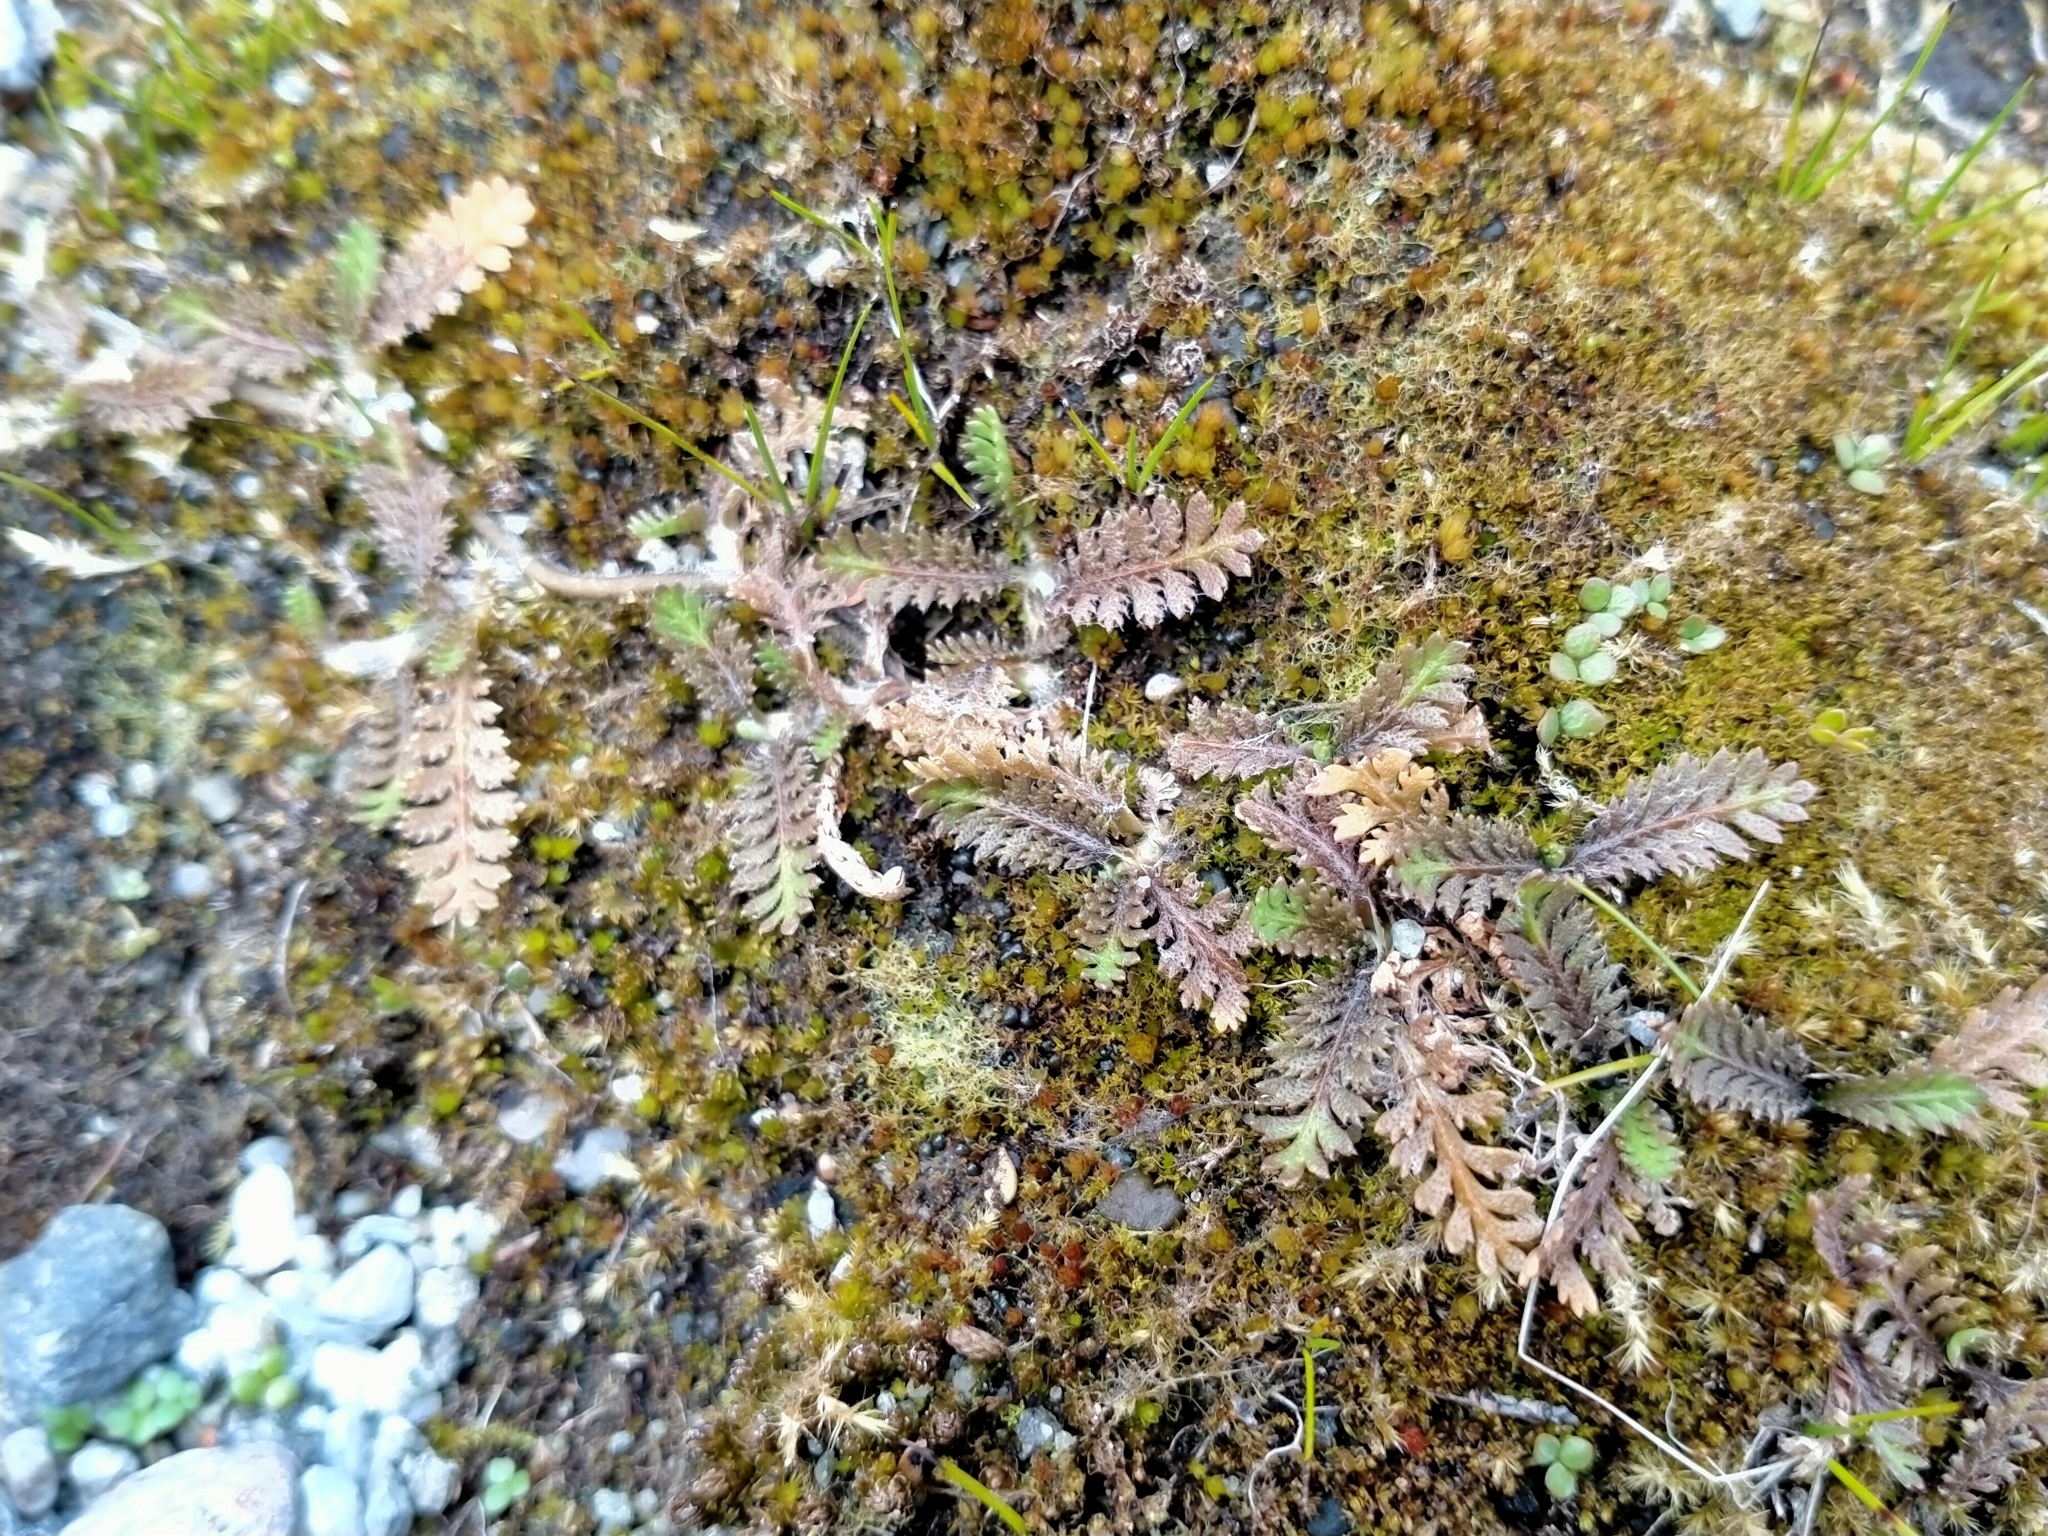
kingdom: Plantae
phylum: Tracheophyta
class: Magnoliopsida
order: Asterales
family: Asteraceae
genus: Leptinella
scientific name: Leptinella squalida
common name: New zealand brass-buttons
